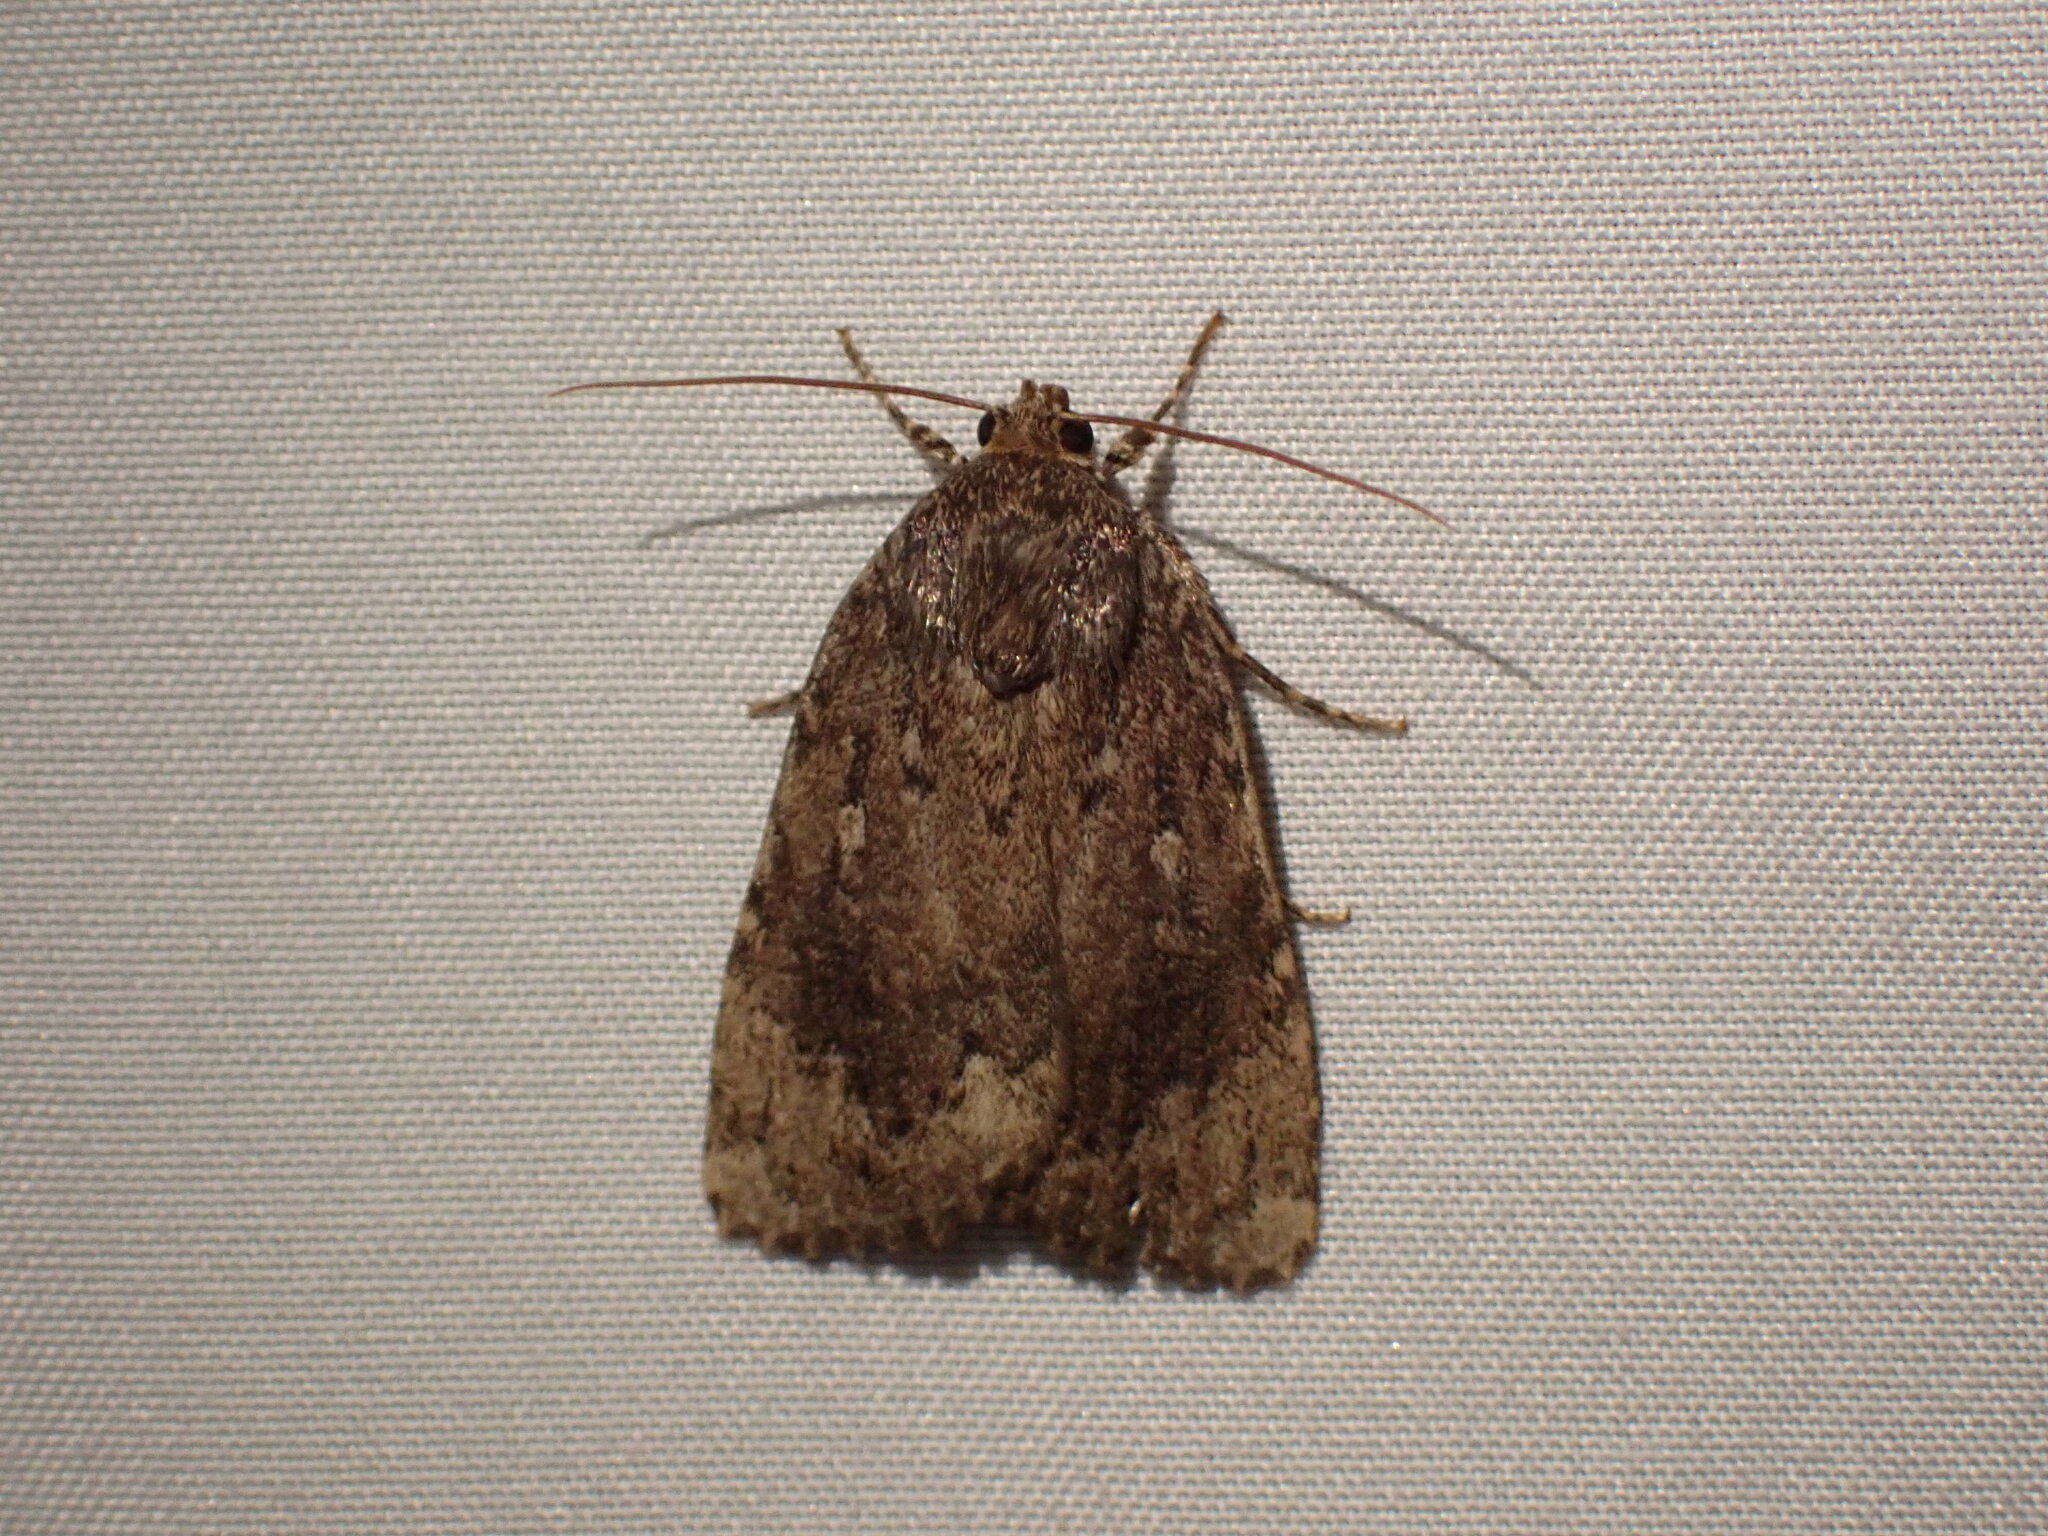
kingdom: Animalia
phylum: Arthropoda
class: Insecta
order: Lepidoptera
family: Noctuidae
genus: Amphipyra
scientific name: Amphipyra pyramidoides
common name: American copper underwing
